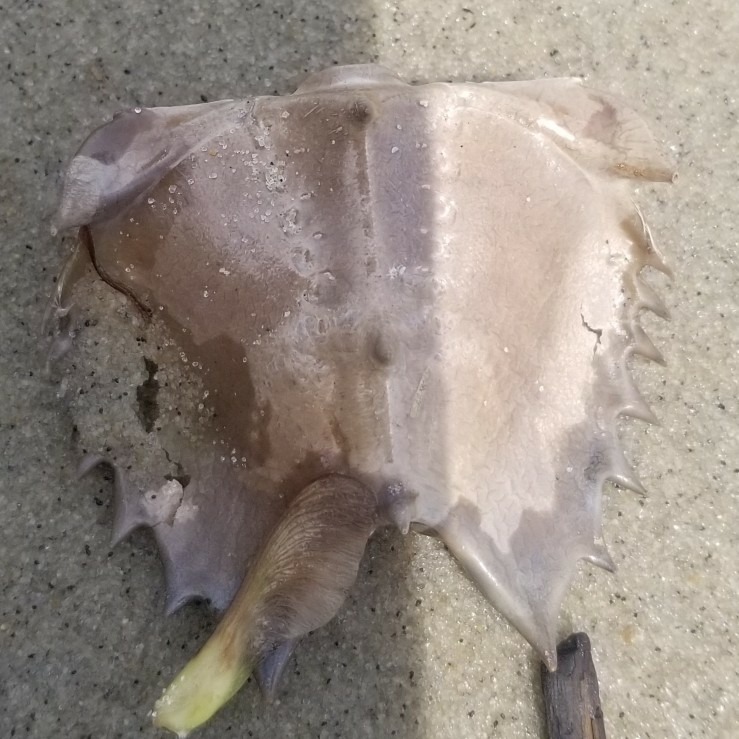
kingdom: Animalia
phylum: Arthropoda
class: Merostomata
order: Xiphosurida
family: Limulidae
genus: Limulus
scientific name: Limulus polyphemus
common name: Horseshoe crab
